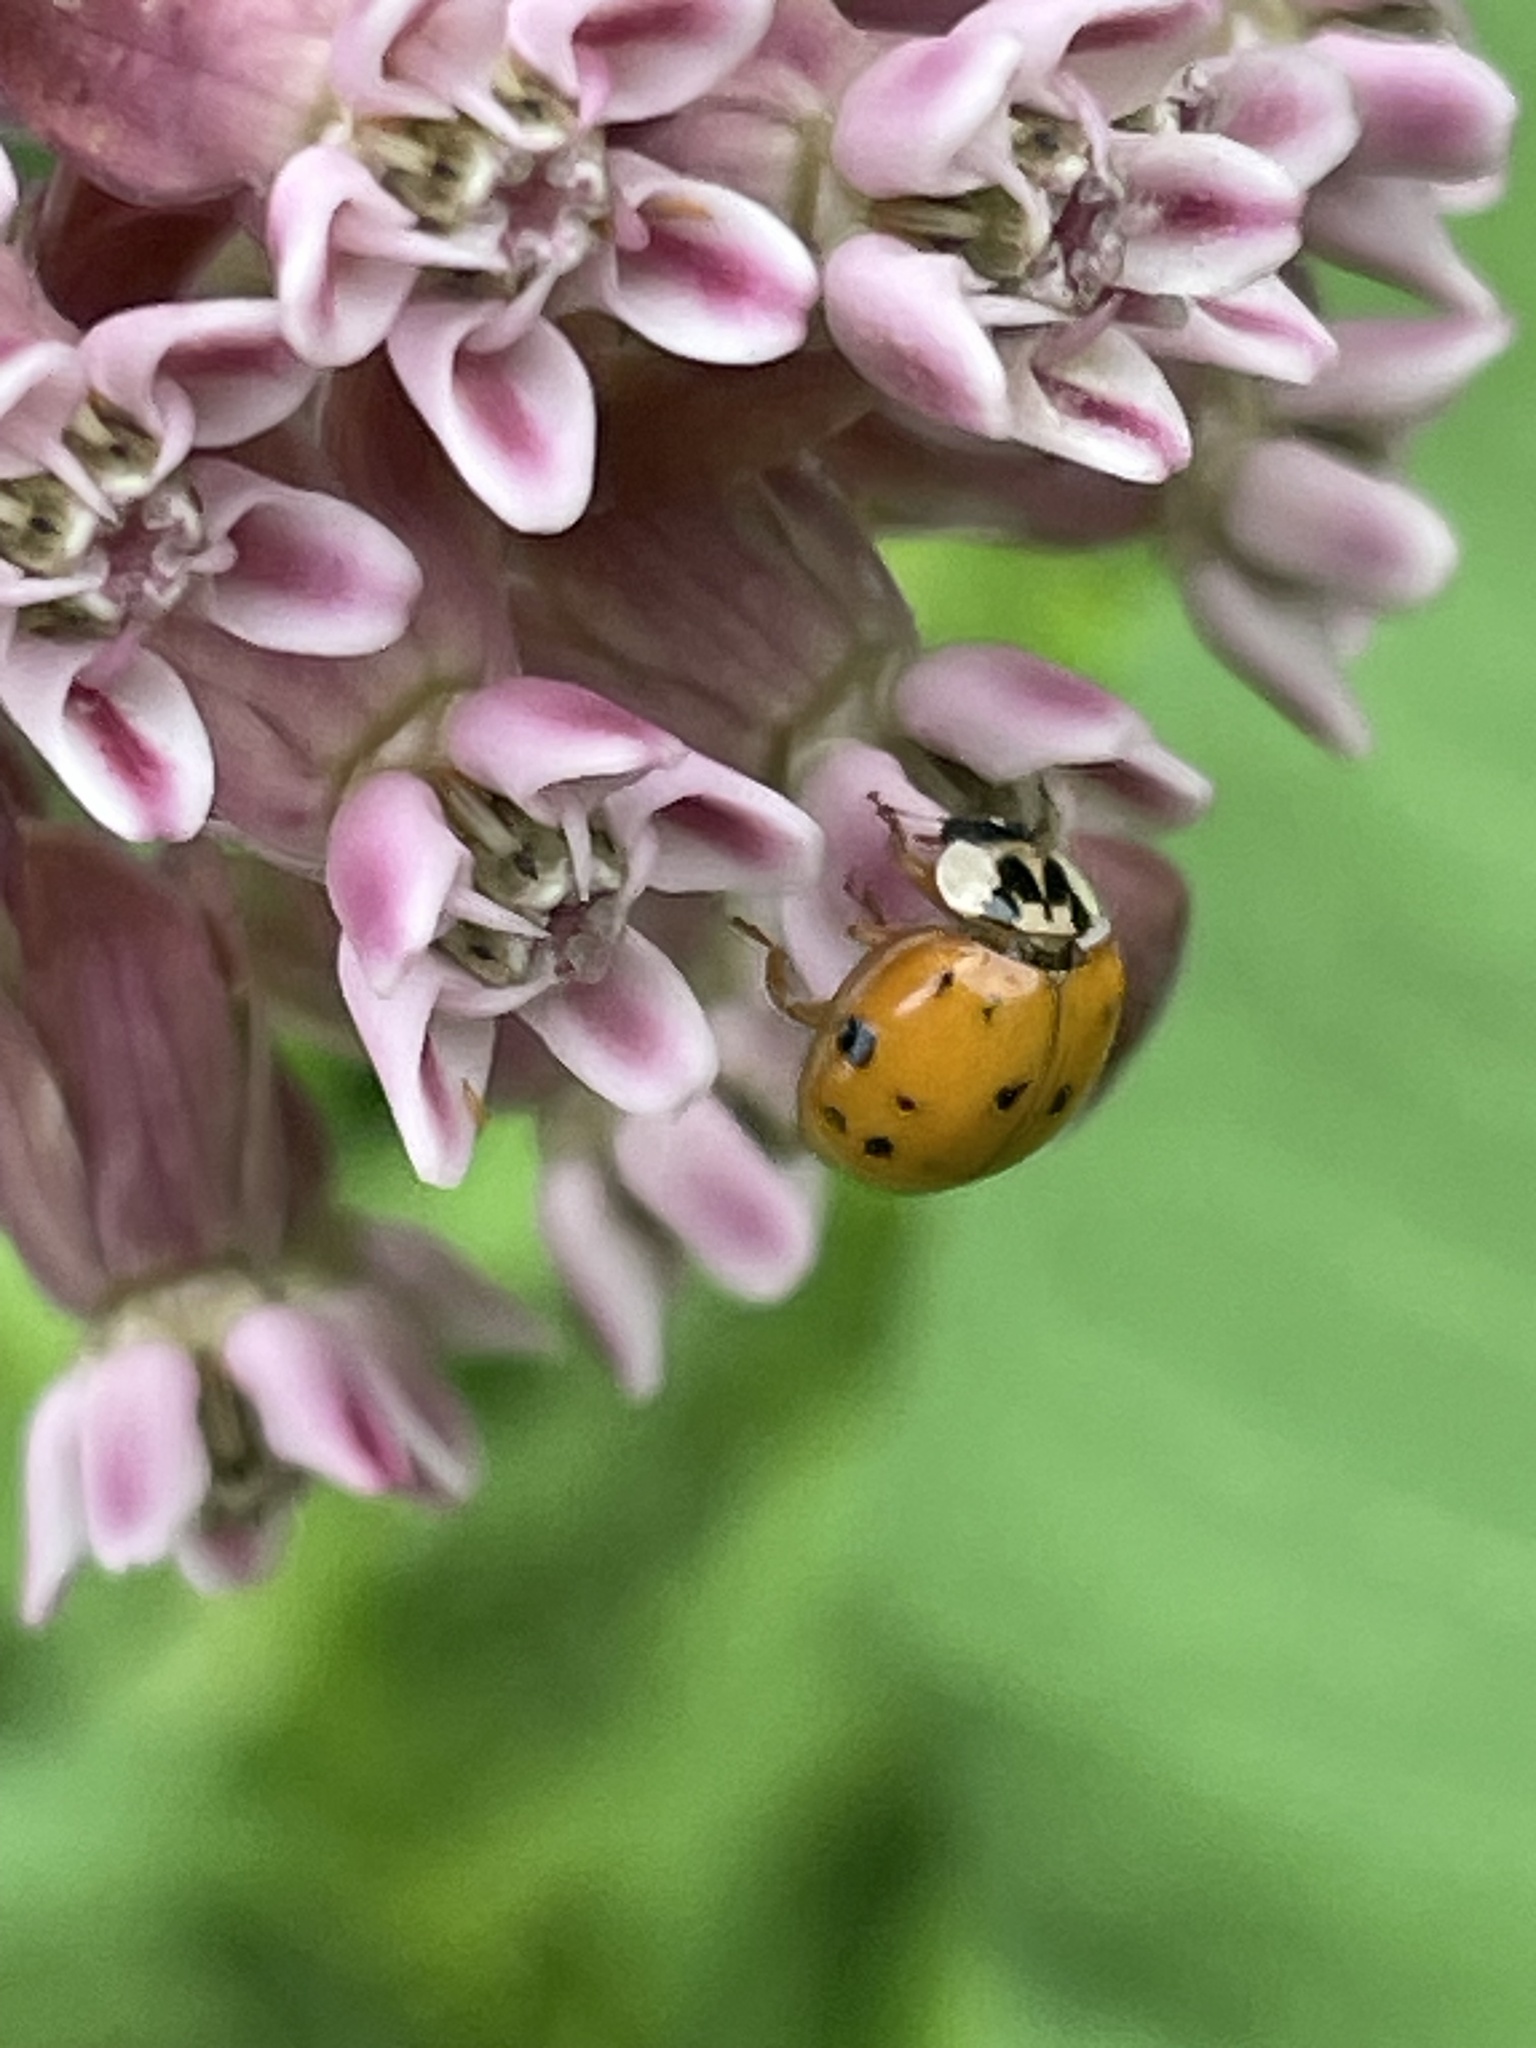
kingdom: Animalia
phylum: Arthropoda
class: Insecta
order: Coleoptera
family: Coccinellidae
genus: Harmonia
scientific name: Harmonia axyridis
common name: Harlequin ladybird
